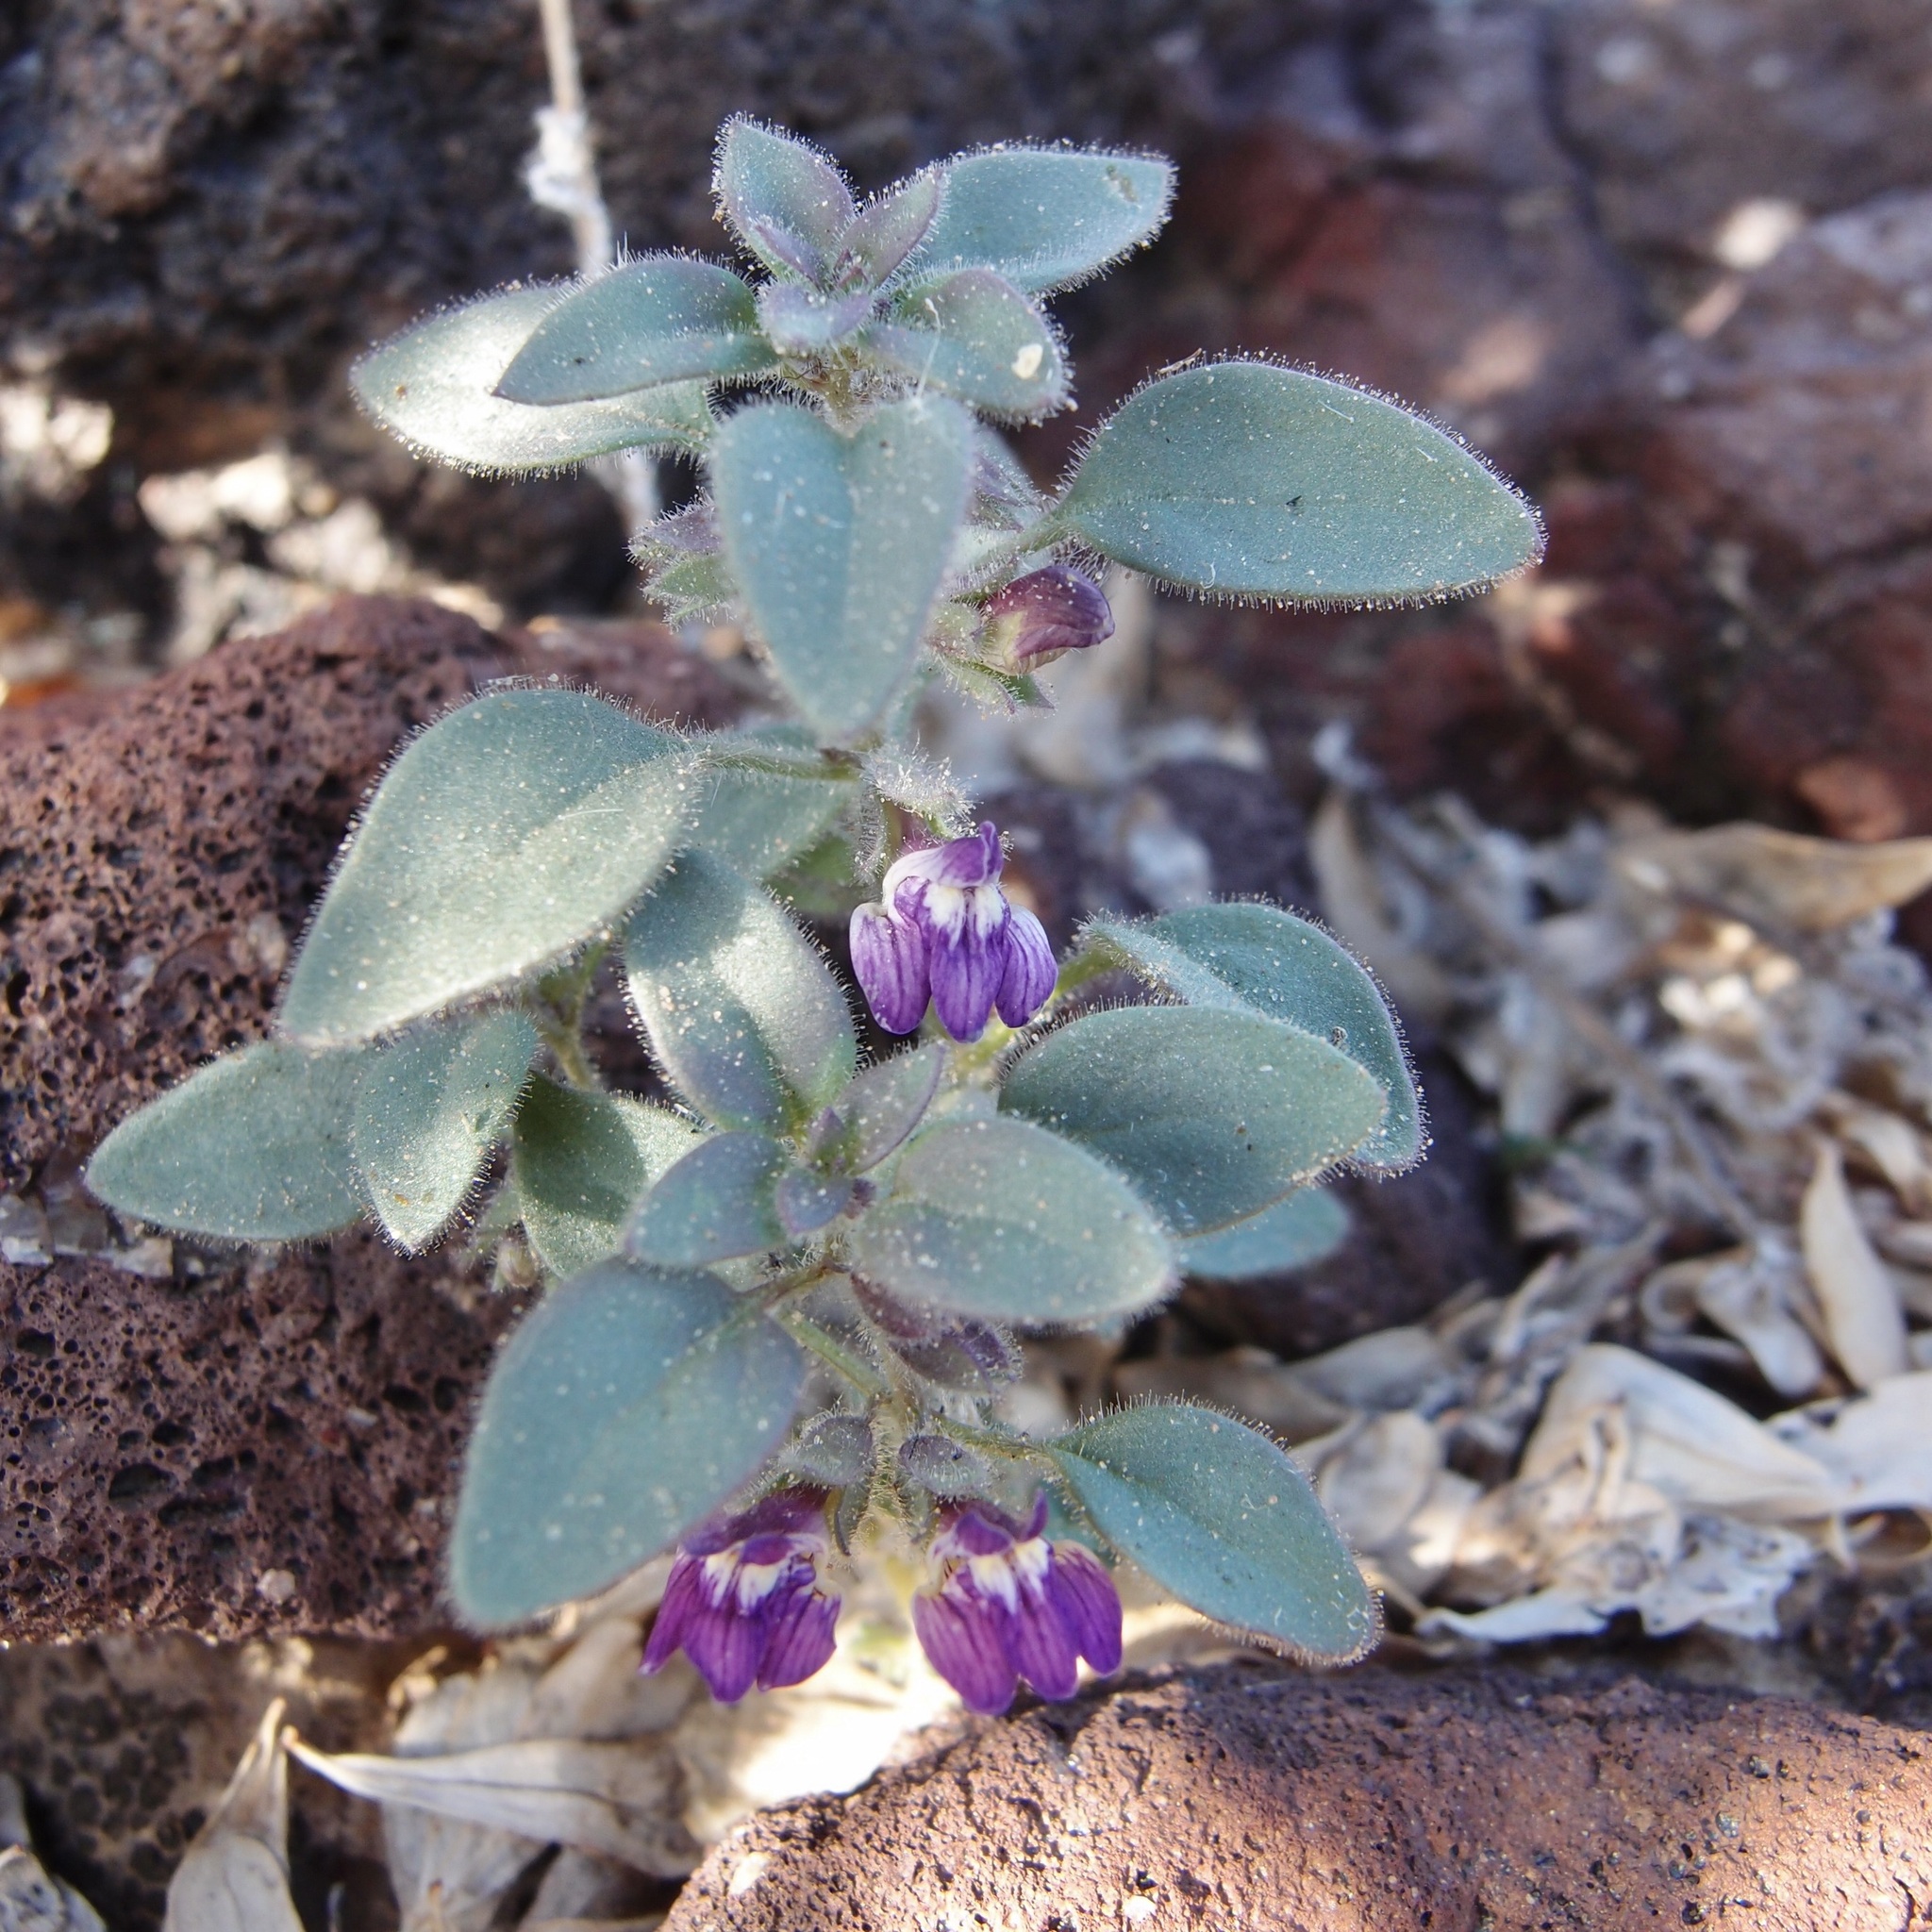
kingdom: Plantae
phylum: Tracheophyta
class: Magnoliopsida
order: Lamiales
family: Plantaginaceae
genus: Pseudorontium
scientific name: Pseudorontium cyathiferum
